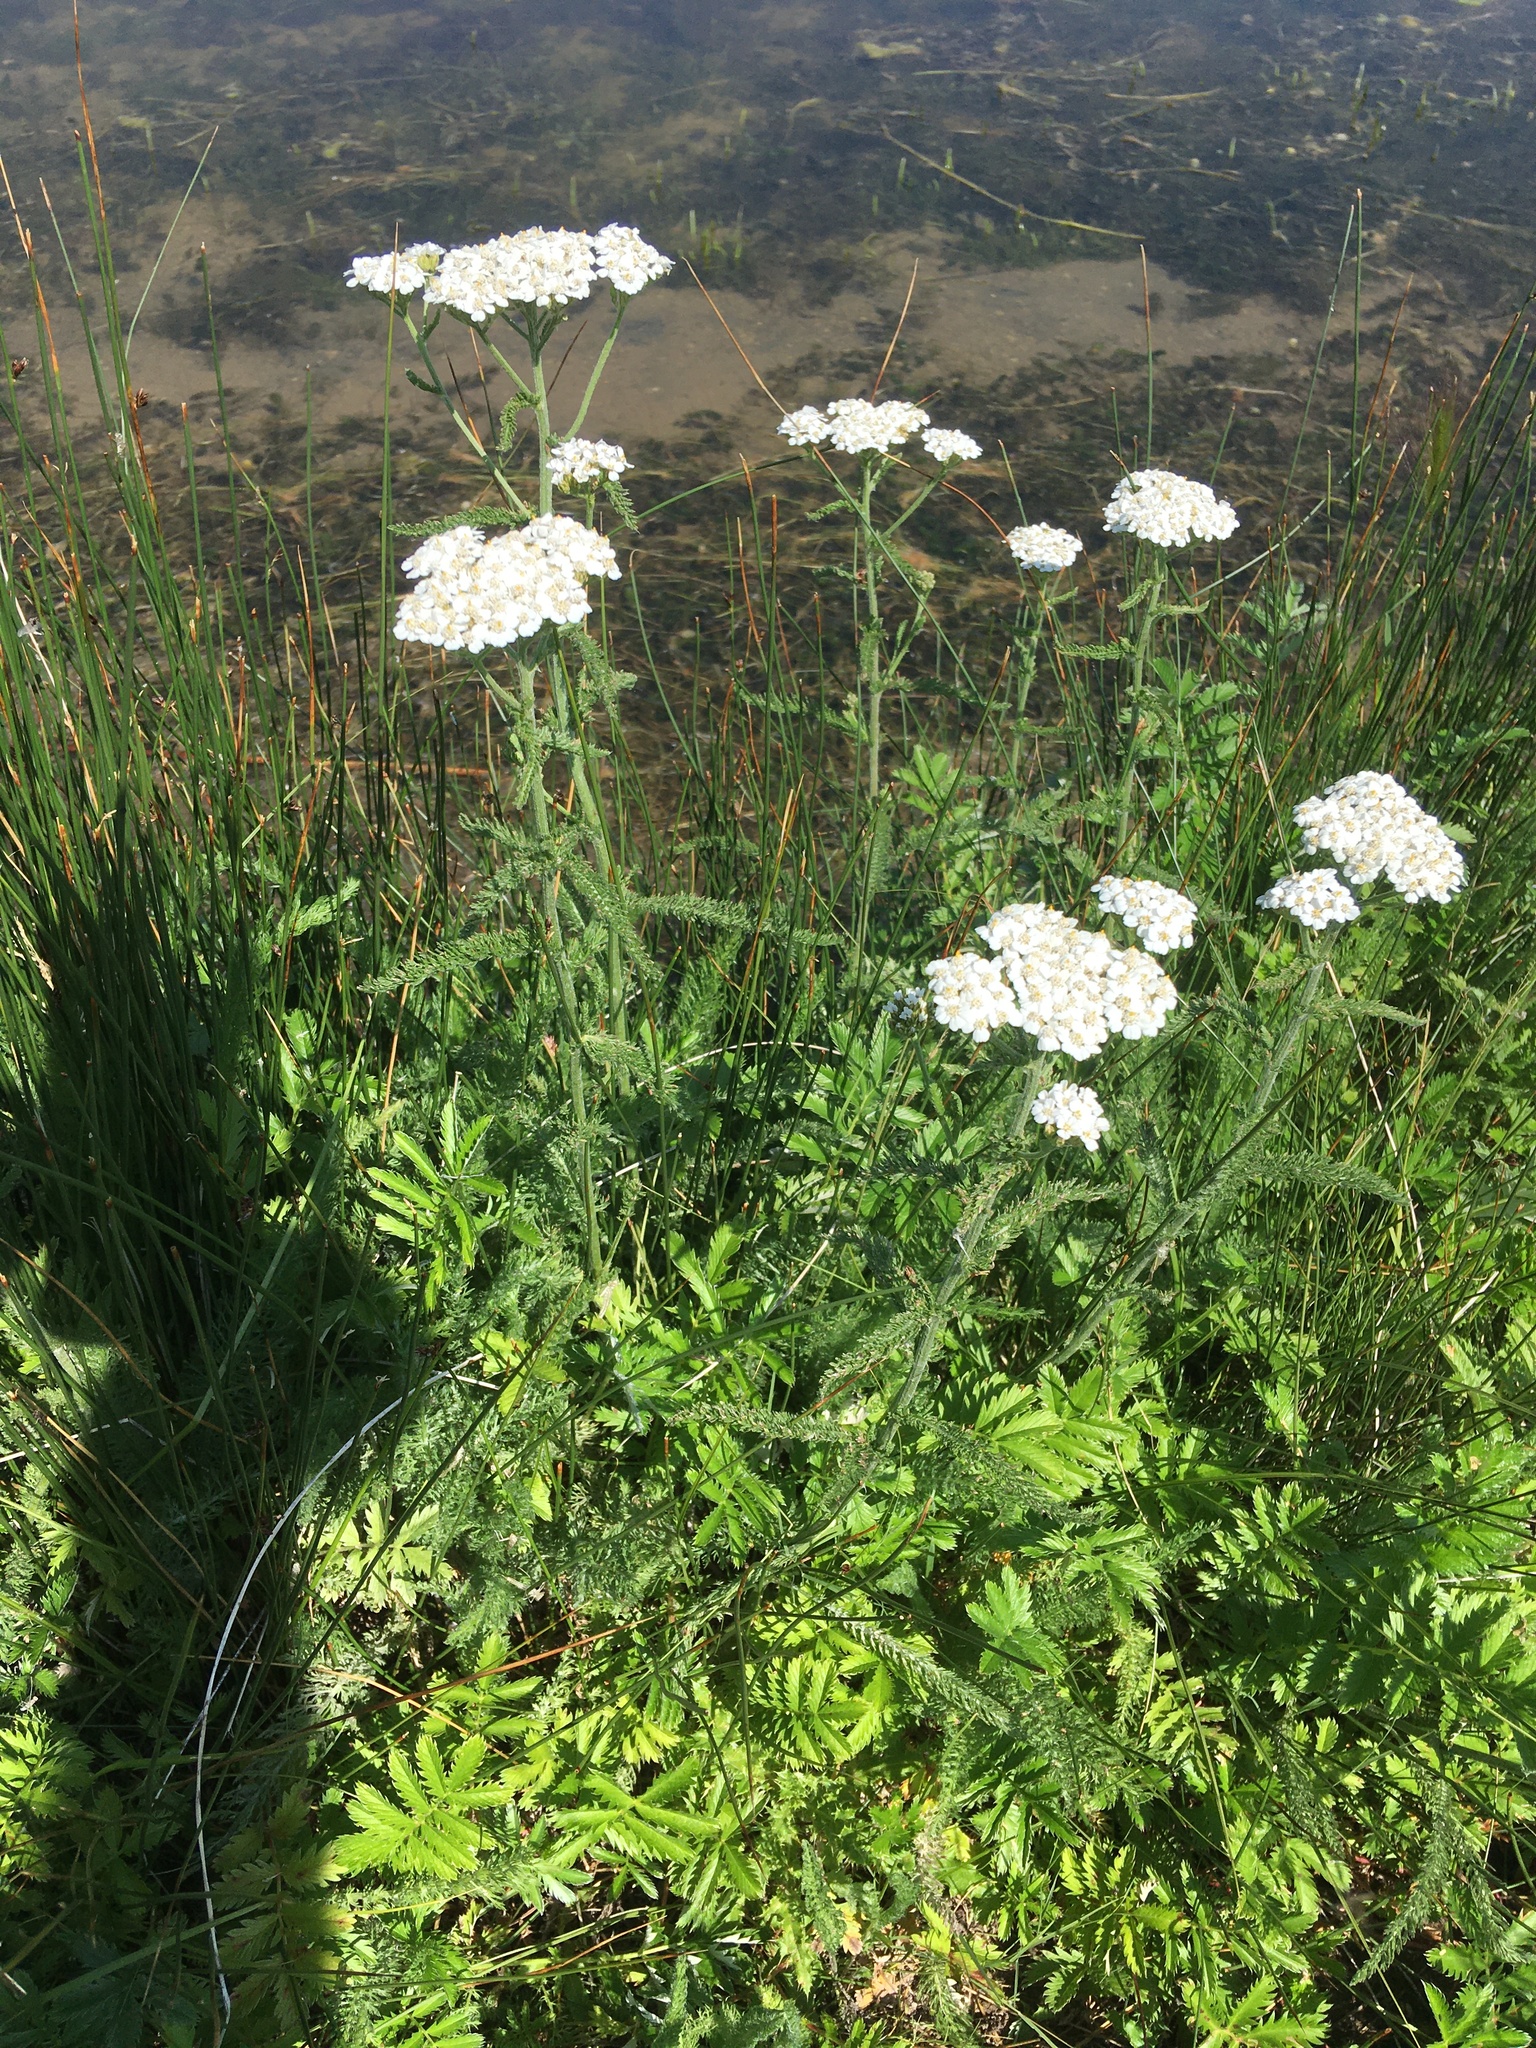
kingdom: Plantae
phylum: Tracheophyta
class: Magnoliopsida
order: Asterales
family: Asteraceae
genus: Achillea
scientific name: Achillea millefolium
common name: Yarrow
